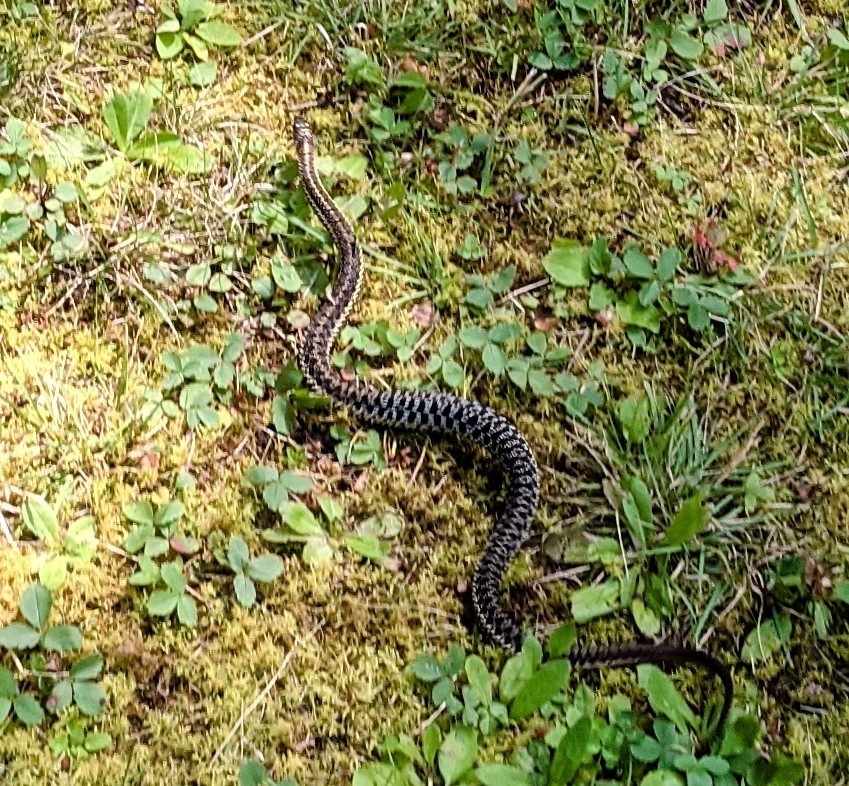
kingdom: Animalia
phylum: Chordata
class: Squamata
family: Colubridae
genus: Thamnophis
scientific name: Thamnophis sirtalis
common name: Common garter snake
